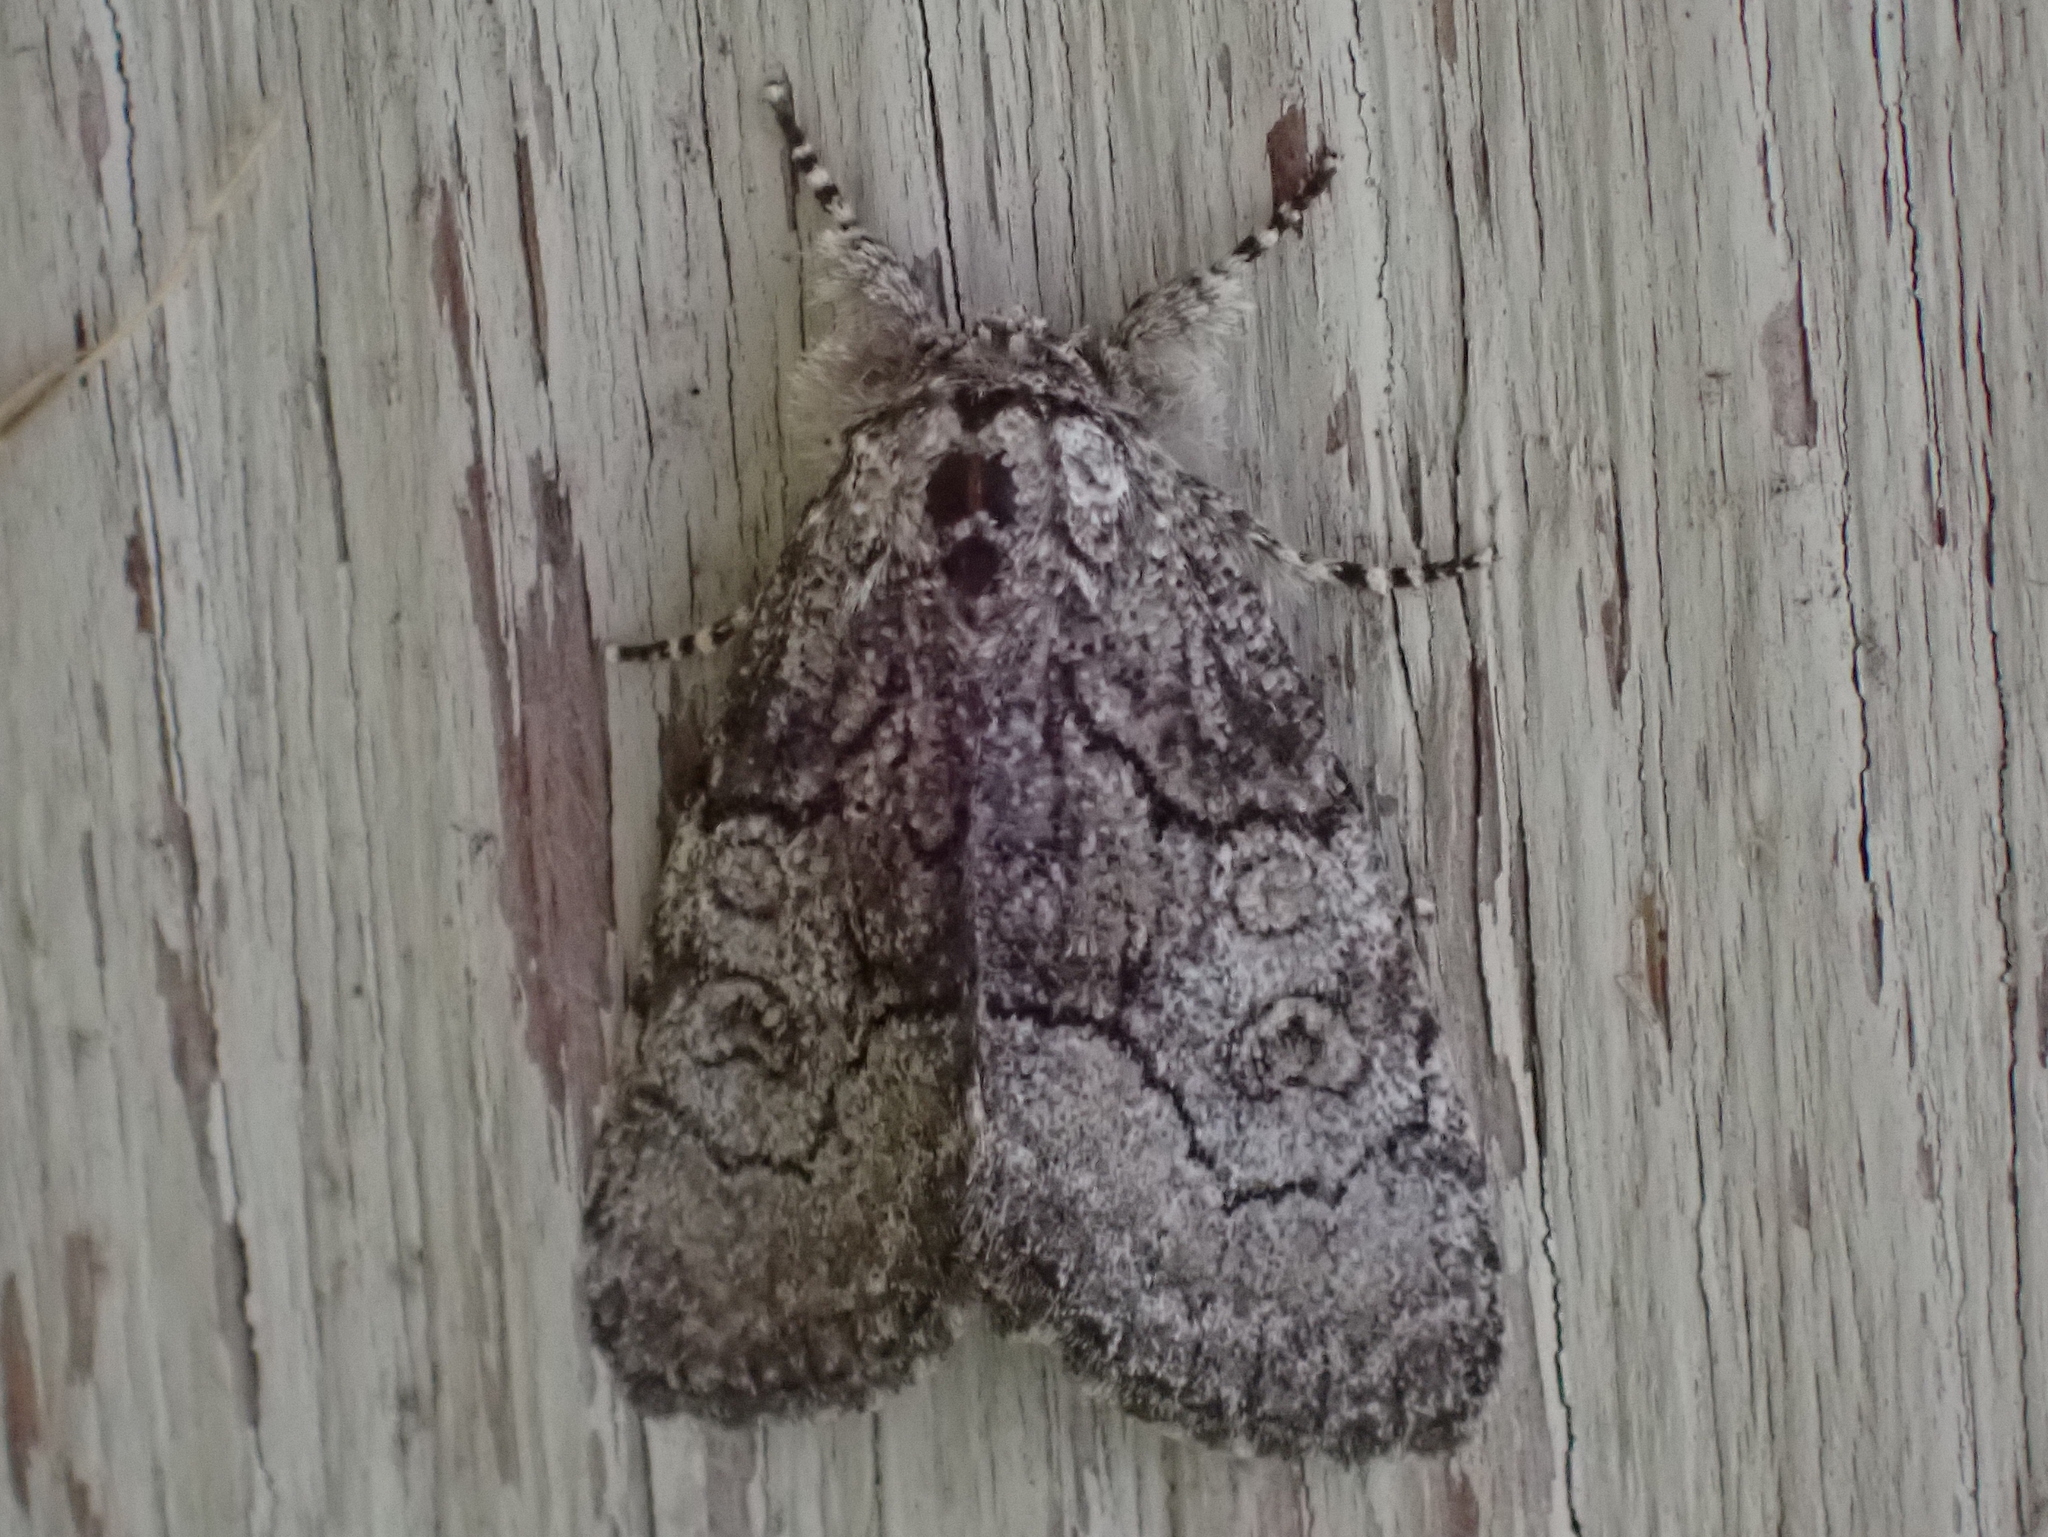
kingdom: Animalia
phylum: Arthropoda
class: Insecta
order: Lepidoptera
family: Noctuidae
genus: Raphia
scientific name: Raphia frater
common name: Brother
